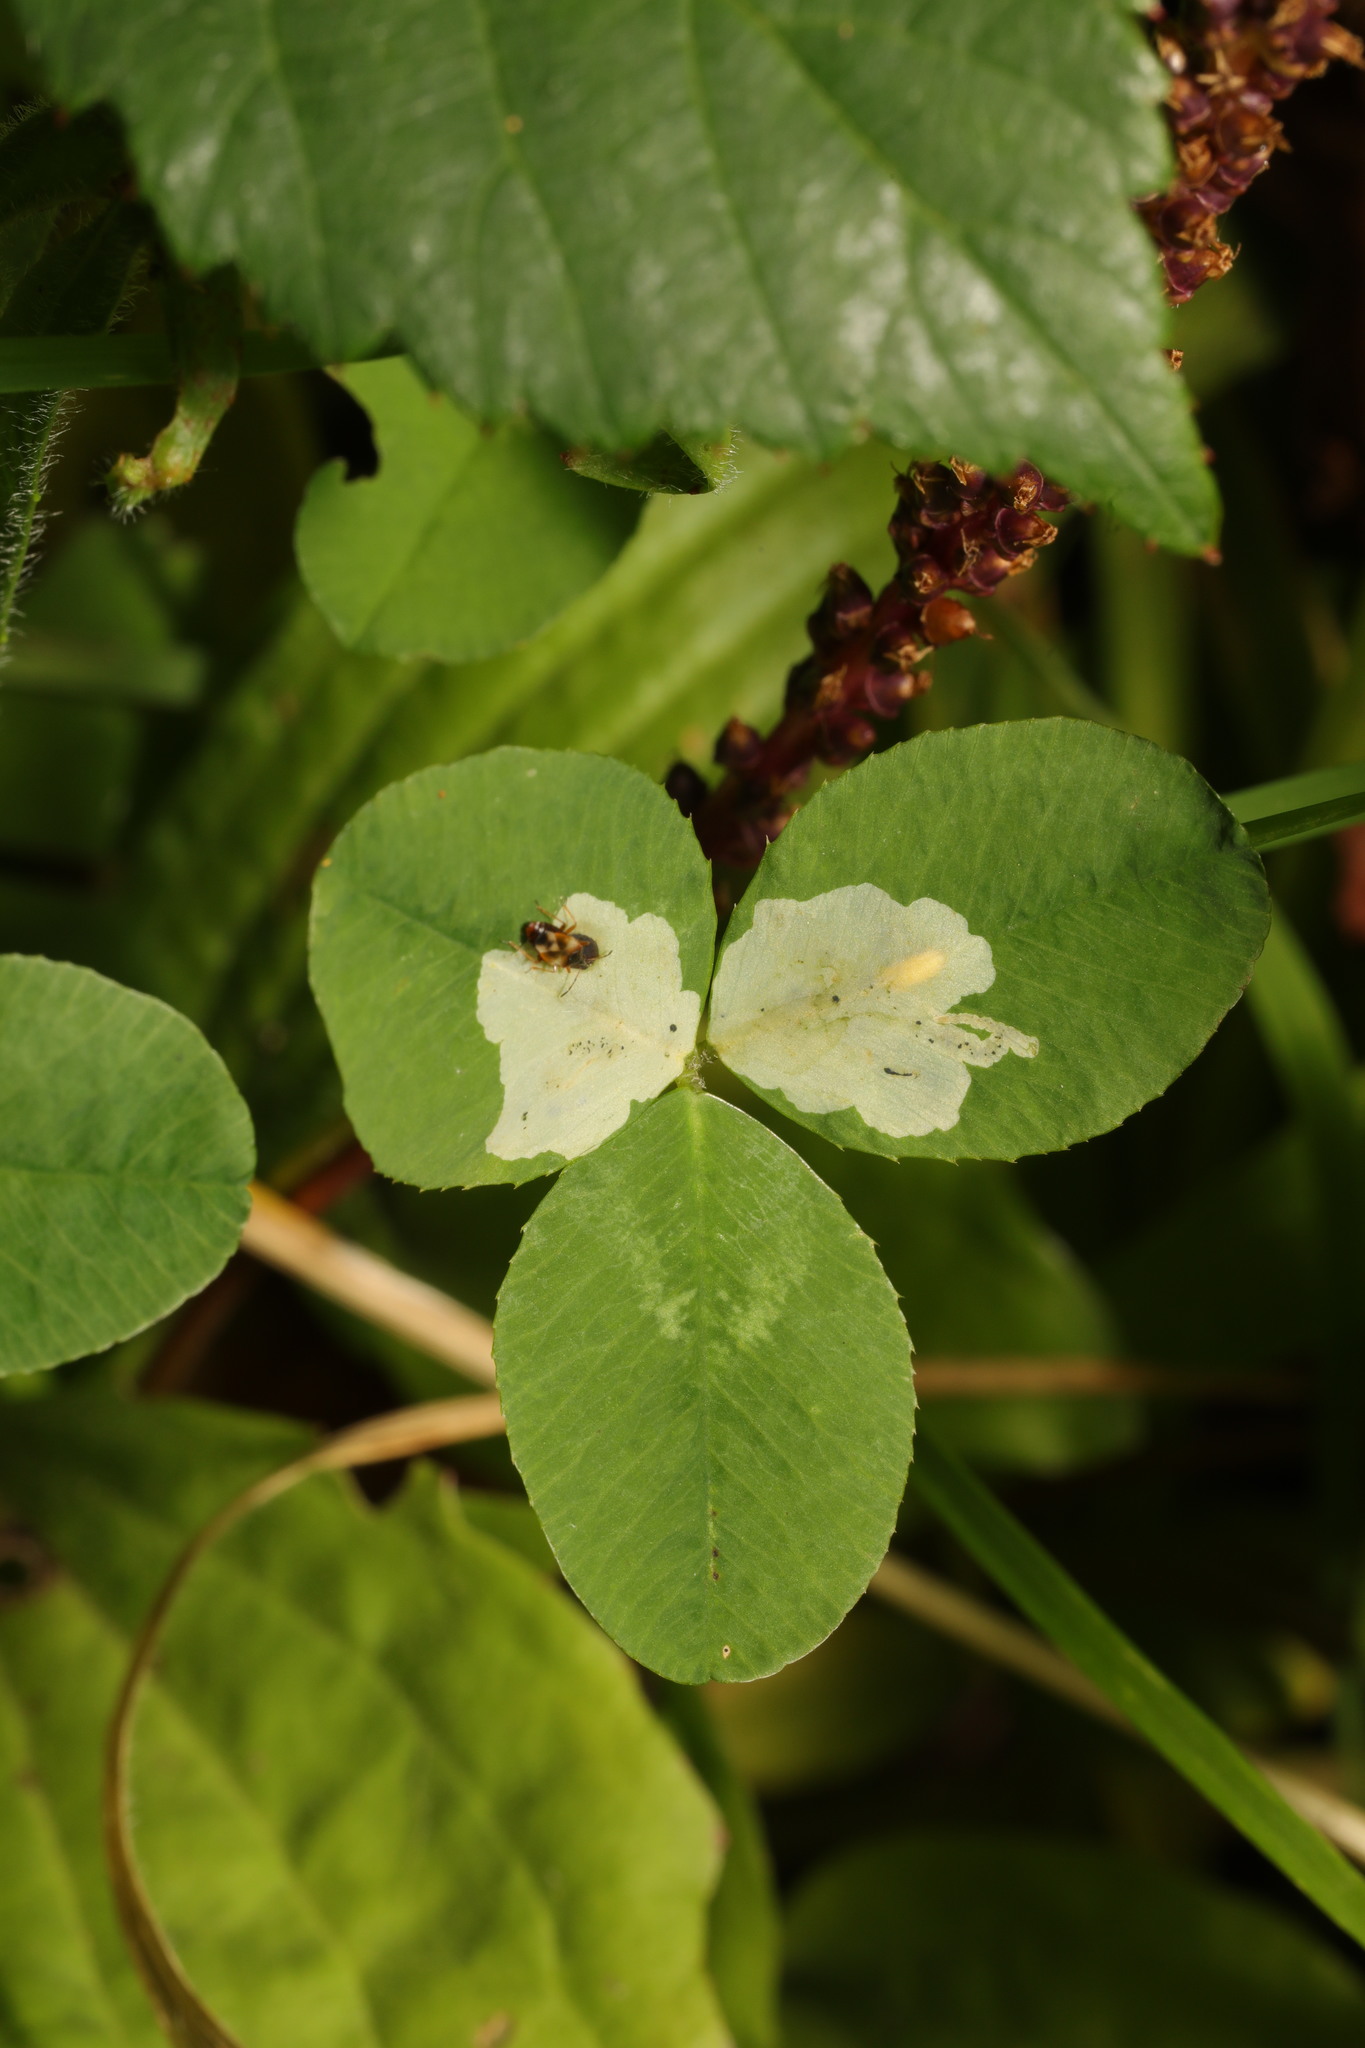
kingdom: Animalia
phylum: Arthropoda
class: Insecta
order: Diptera
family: Agromyzidae
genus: Agromyza
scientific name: Agromyza nana
